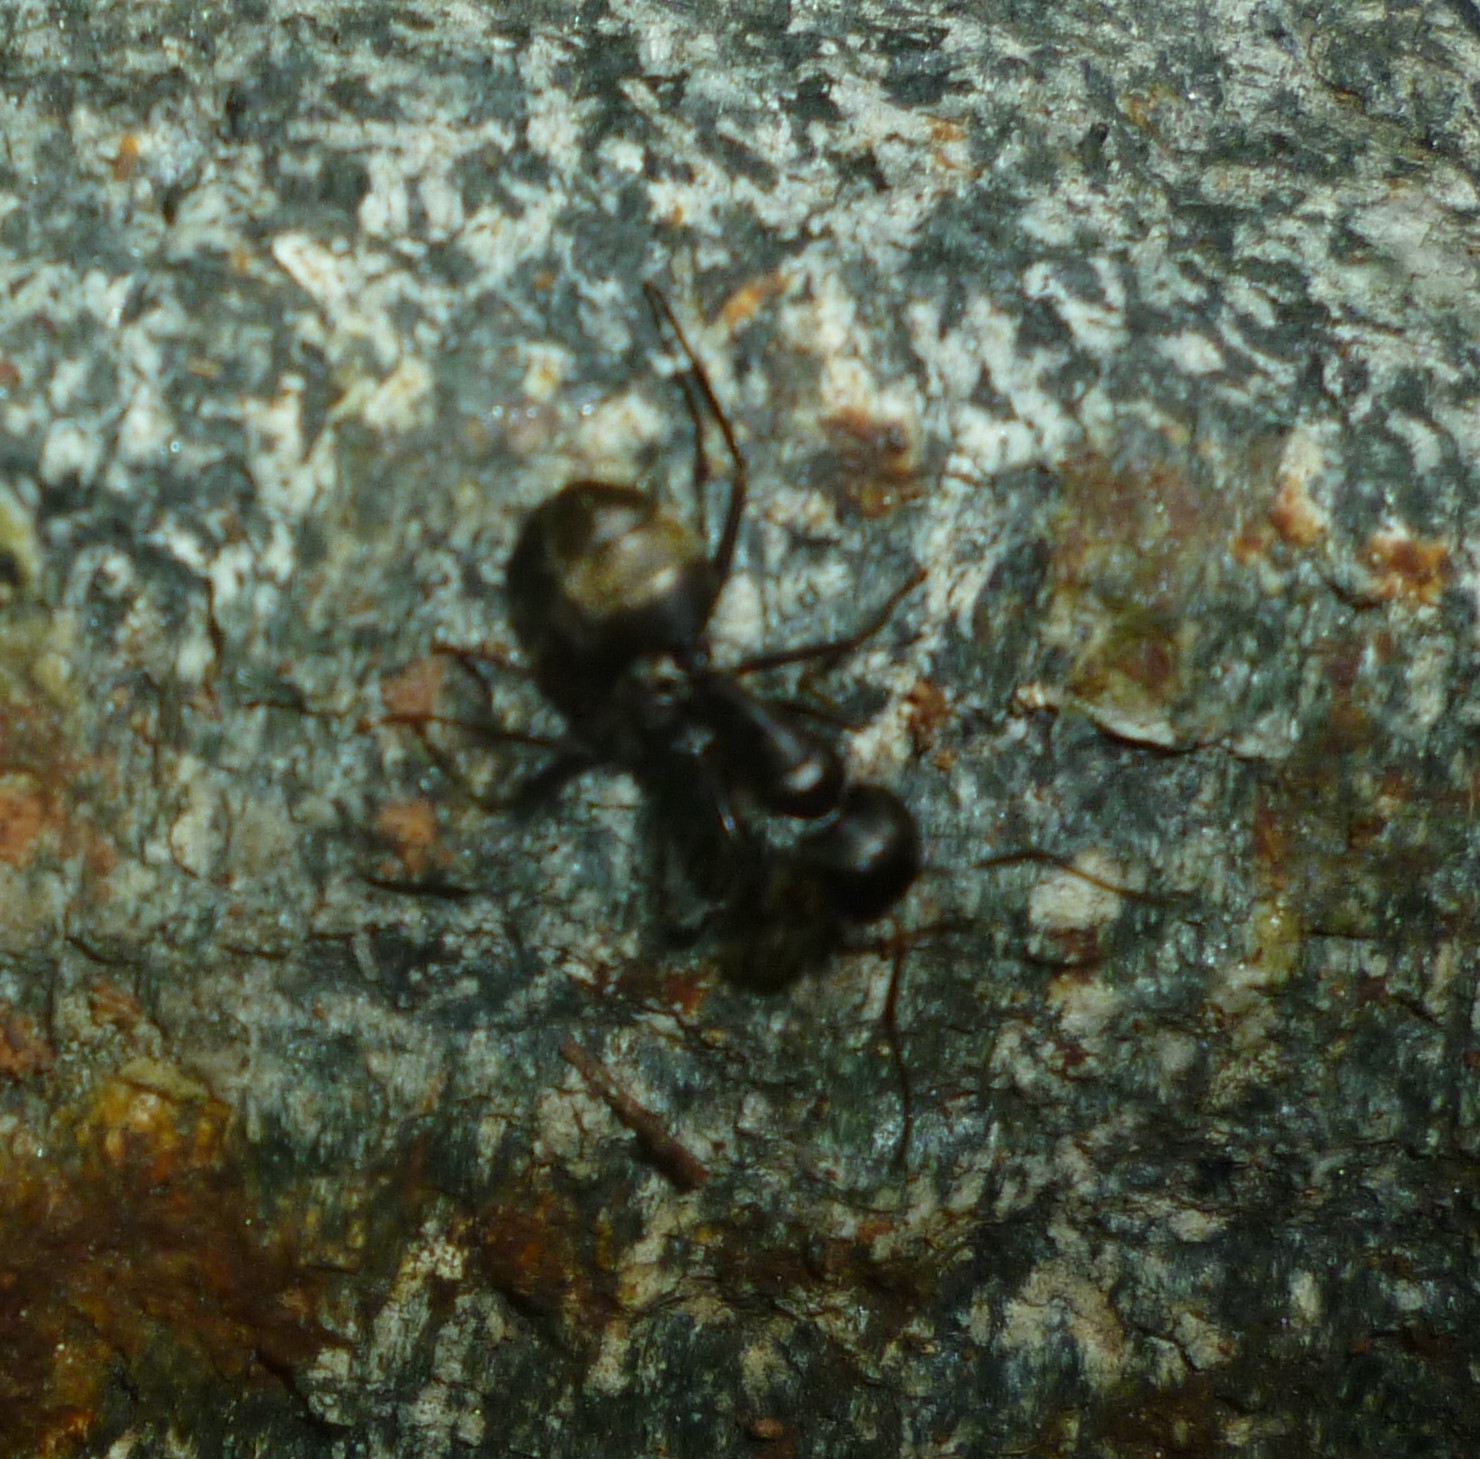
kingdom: Animalia
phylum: Arthropoda
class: Insecta
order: Hymenoptera
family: Formicidae
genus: Camponotus
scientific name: Camponotus pennsylvanicus
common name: Black carpenter ant
